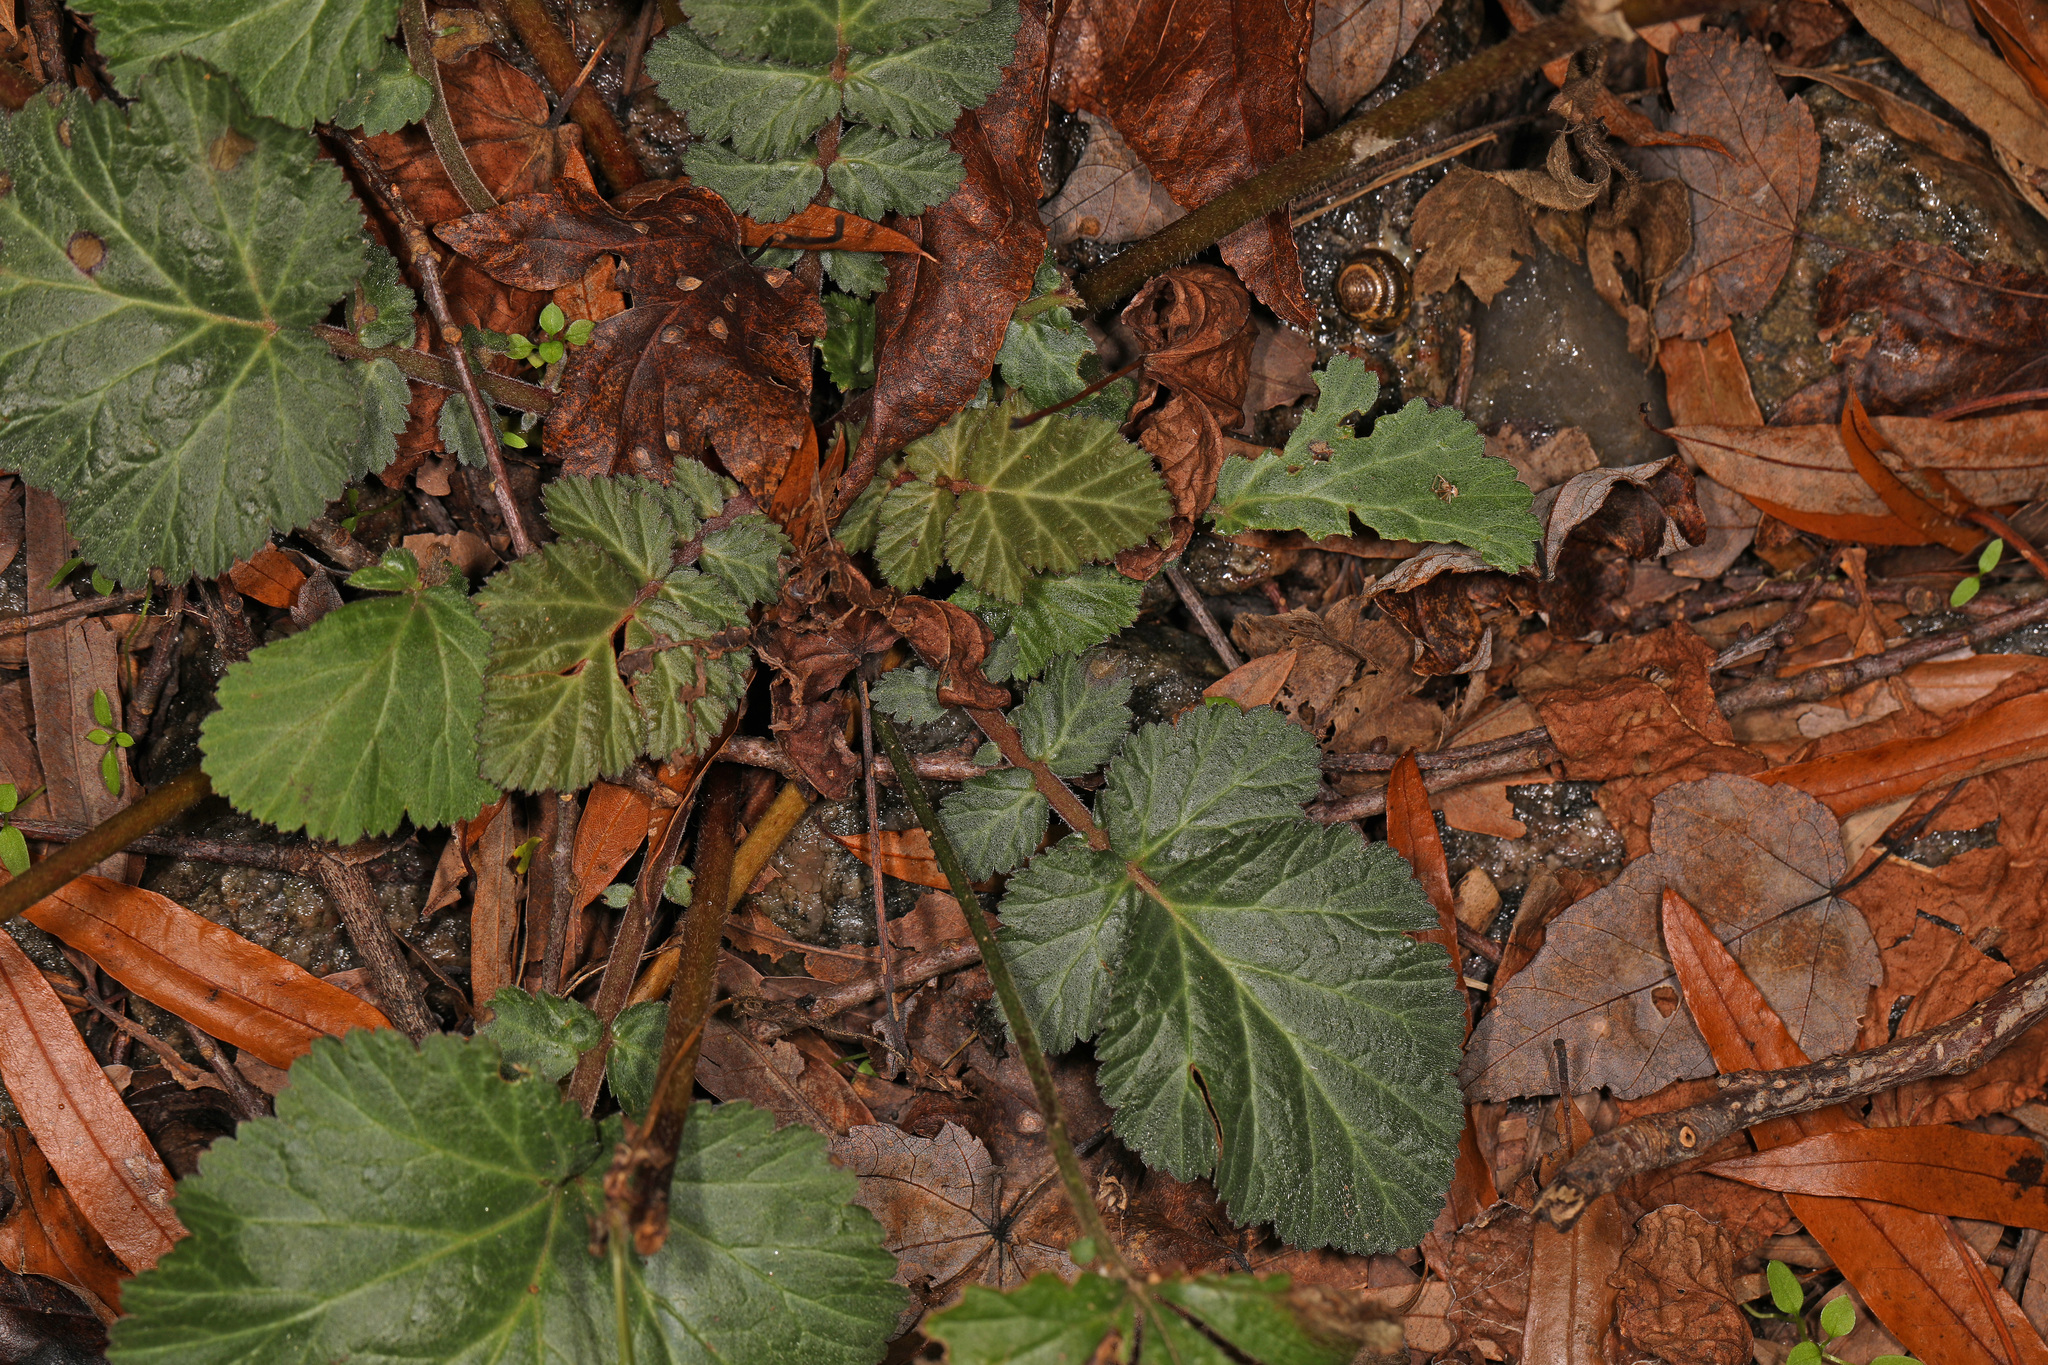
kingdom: Plantae
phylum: Tracheophyta
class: Magnoliopsida
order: Rosales
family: Rosaceae
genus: Geum
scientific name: Geum canadense
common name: White avens
